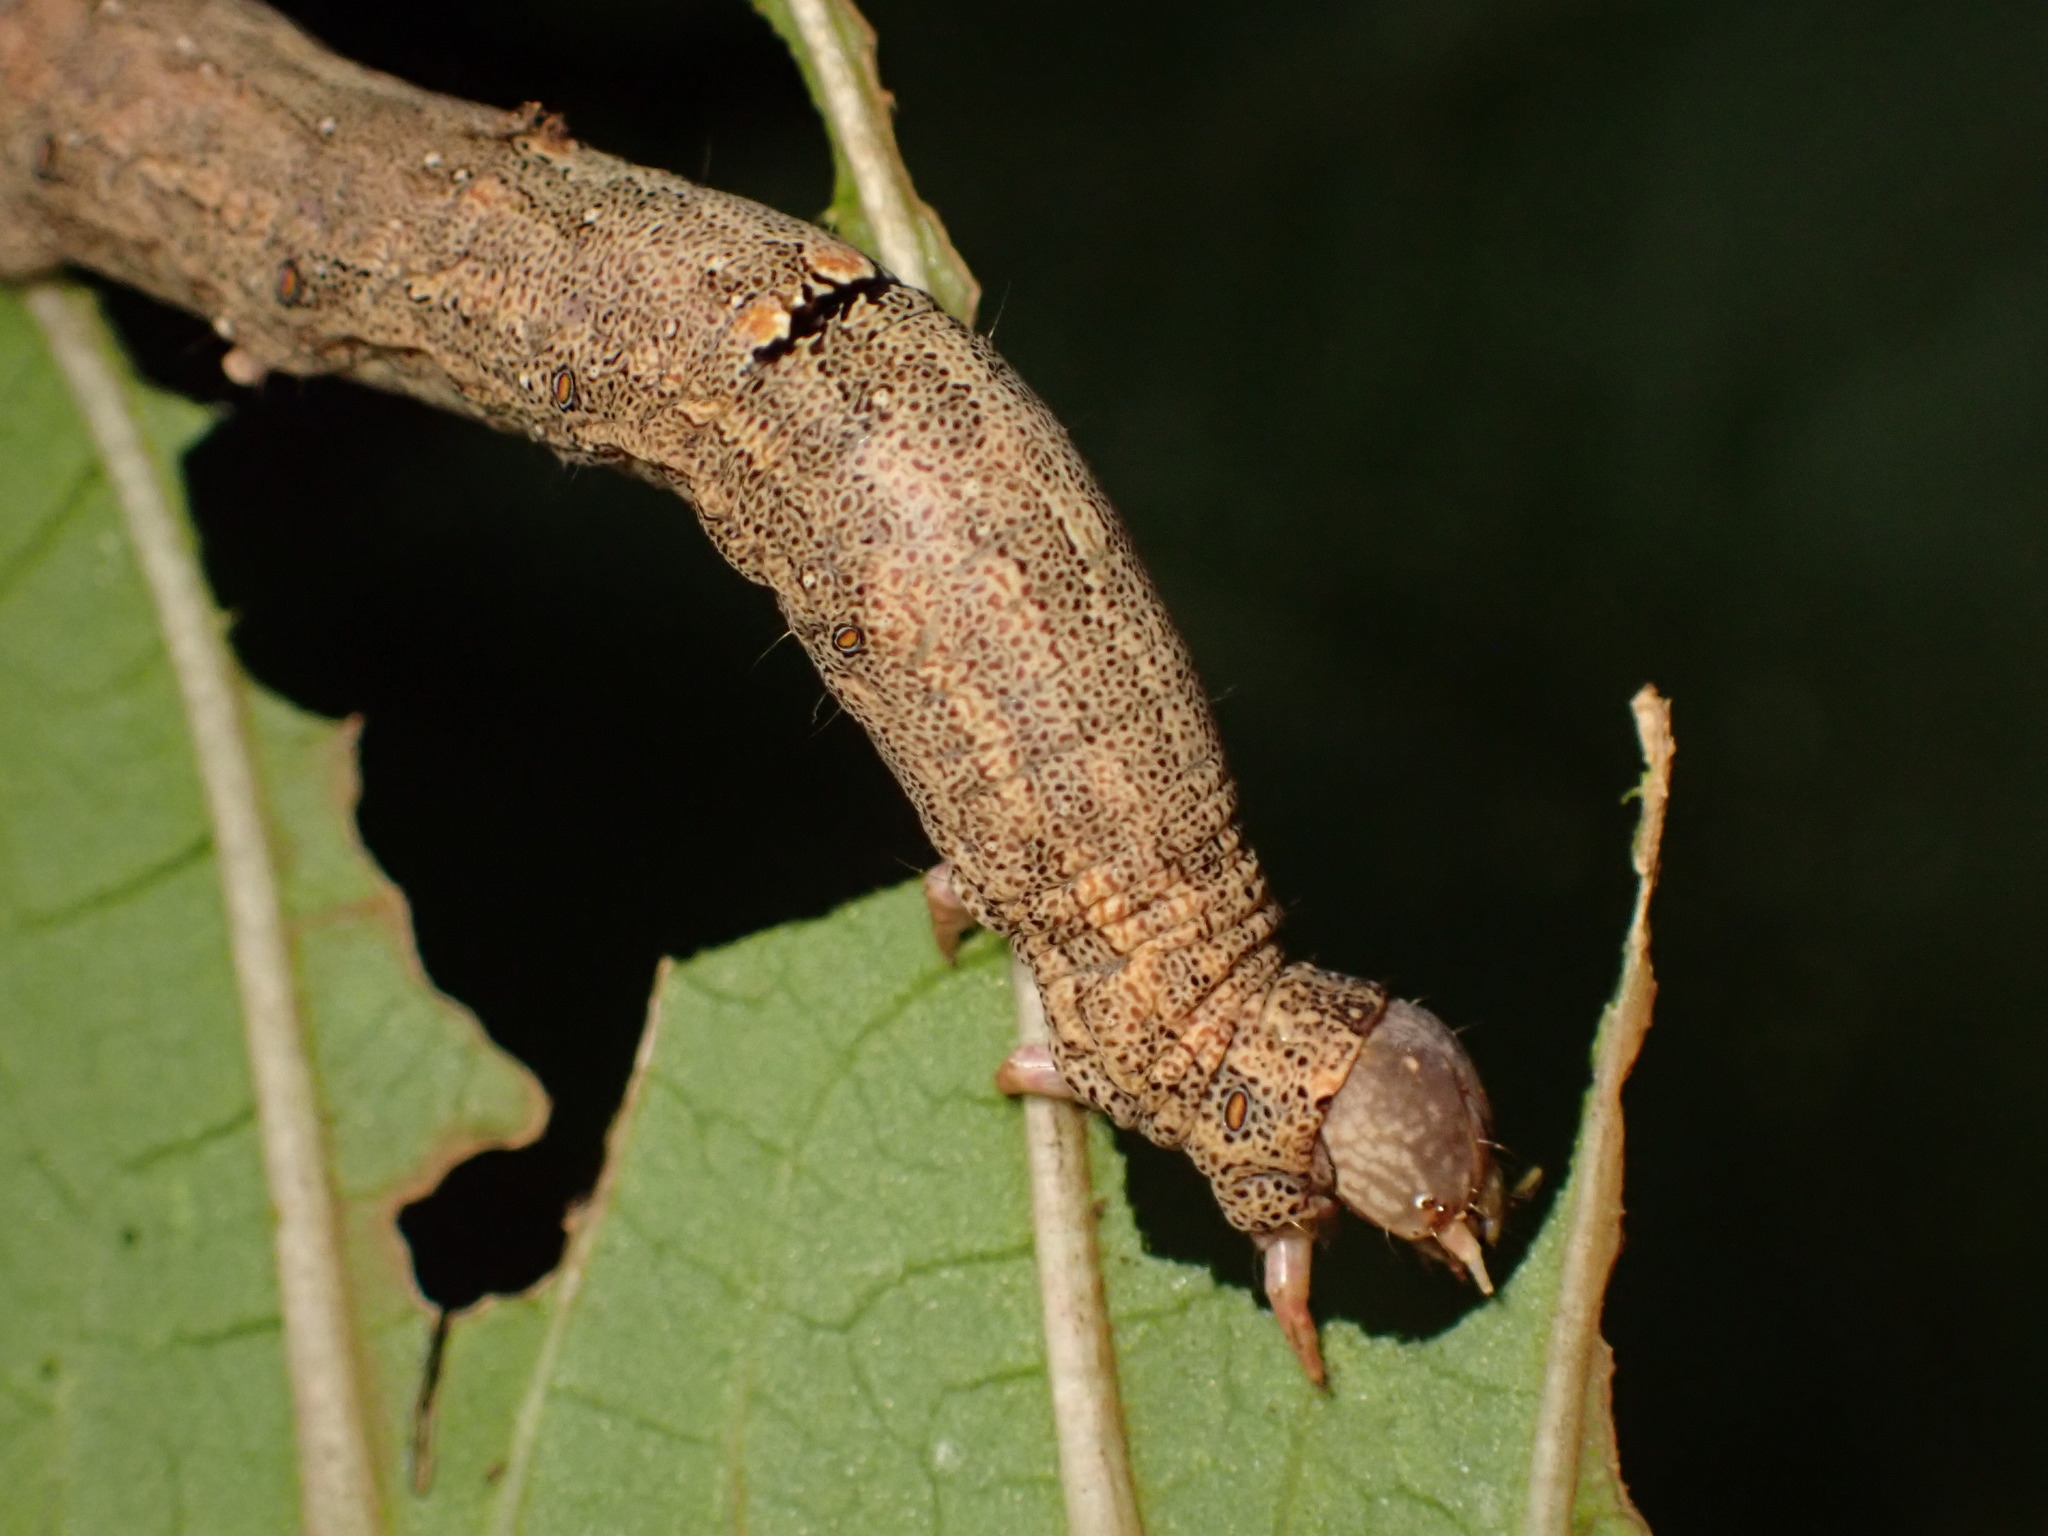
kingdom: Animalia
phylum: Arthropoda
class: Insecta
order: Lepidoptera
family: Erebidae
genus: Achaea
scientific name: Achaea janata
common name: Croton caterpillar
